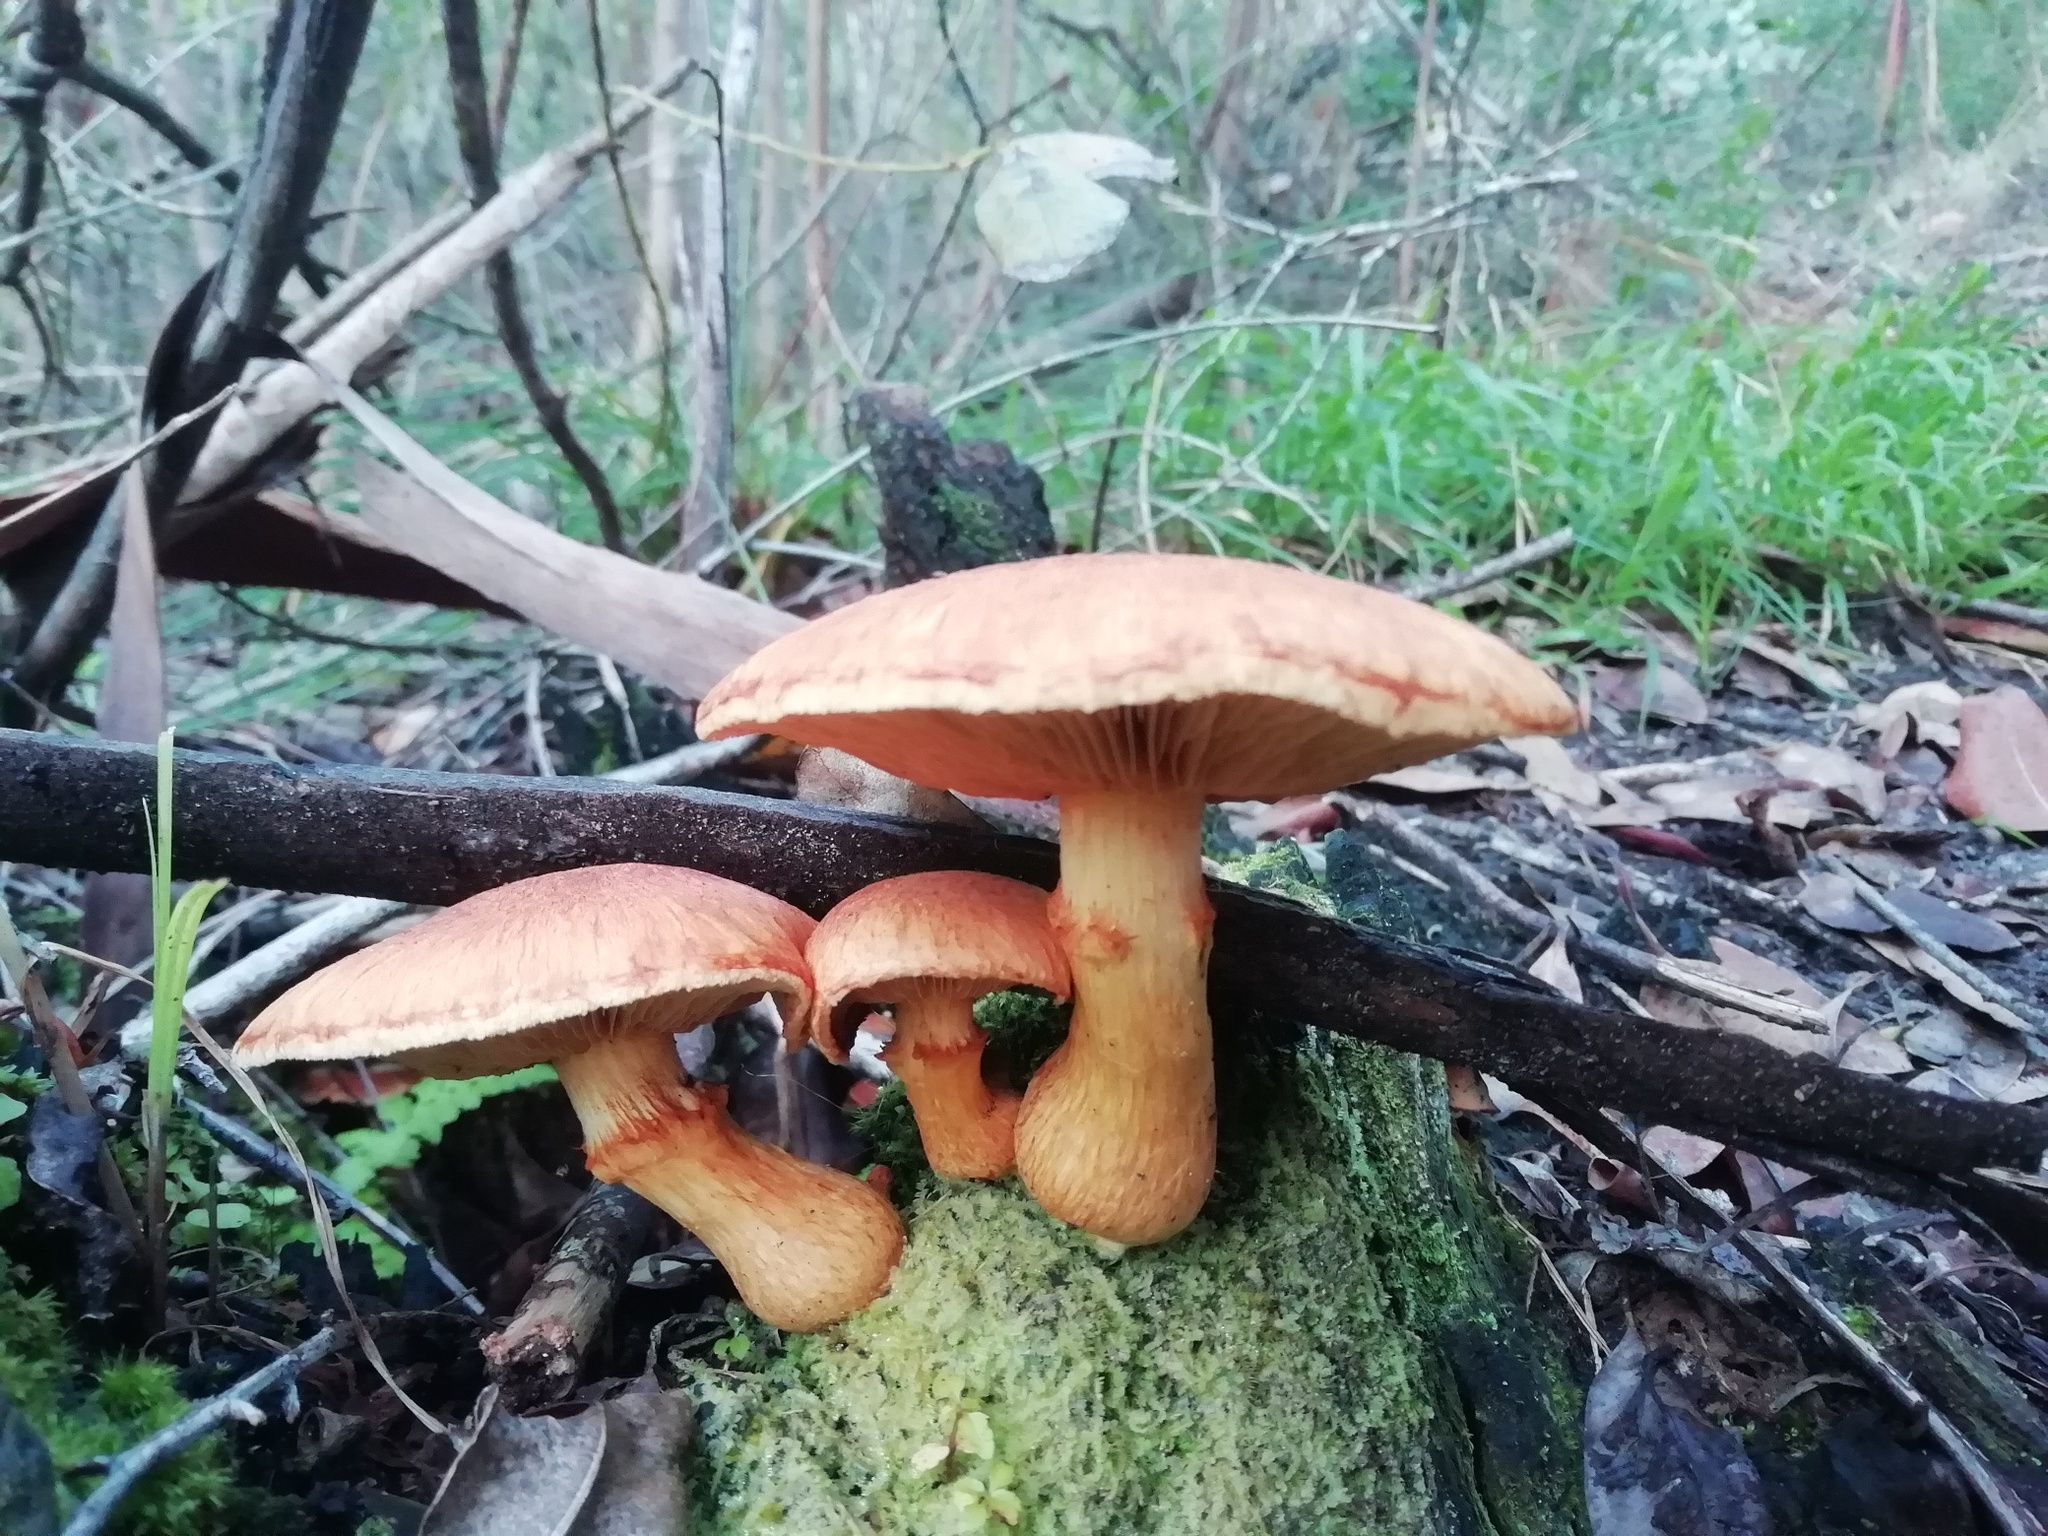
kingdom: Fungi
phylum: Basidiomycota
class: Agaricomycetes
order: Agaricales
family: Hymenogastraceae
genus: Gymnopilus
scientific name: Gymnopilus junonius
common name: Spectacular rustgill
